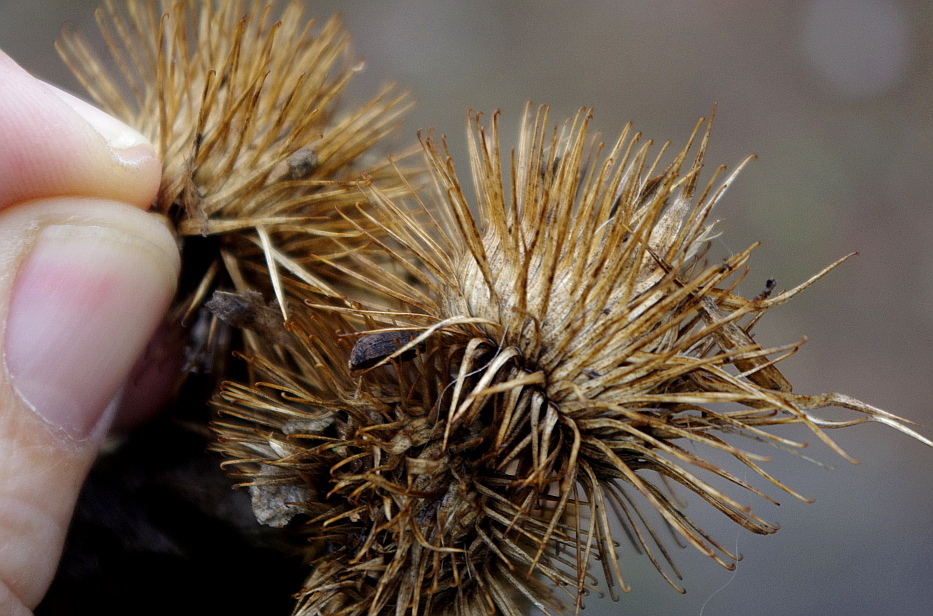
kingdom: Plantae
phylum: Tracheophyta
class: Magnoliopsida
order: Asterales
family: Asteraceae
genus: Arctium
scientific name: Arctium lappa
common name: Greater burdock
